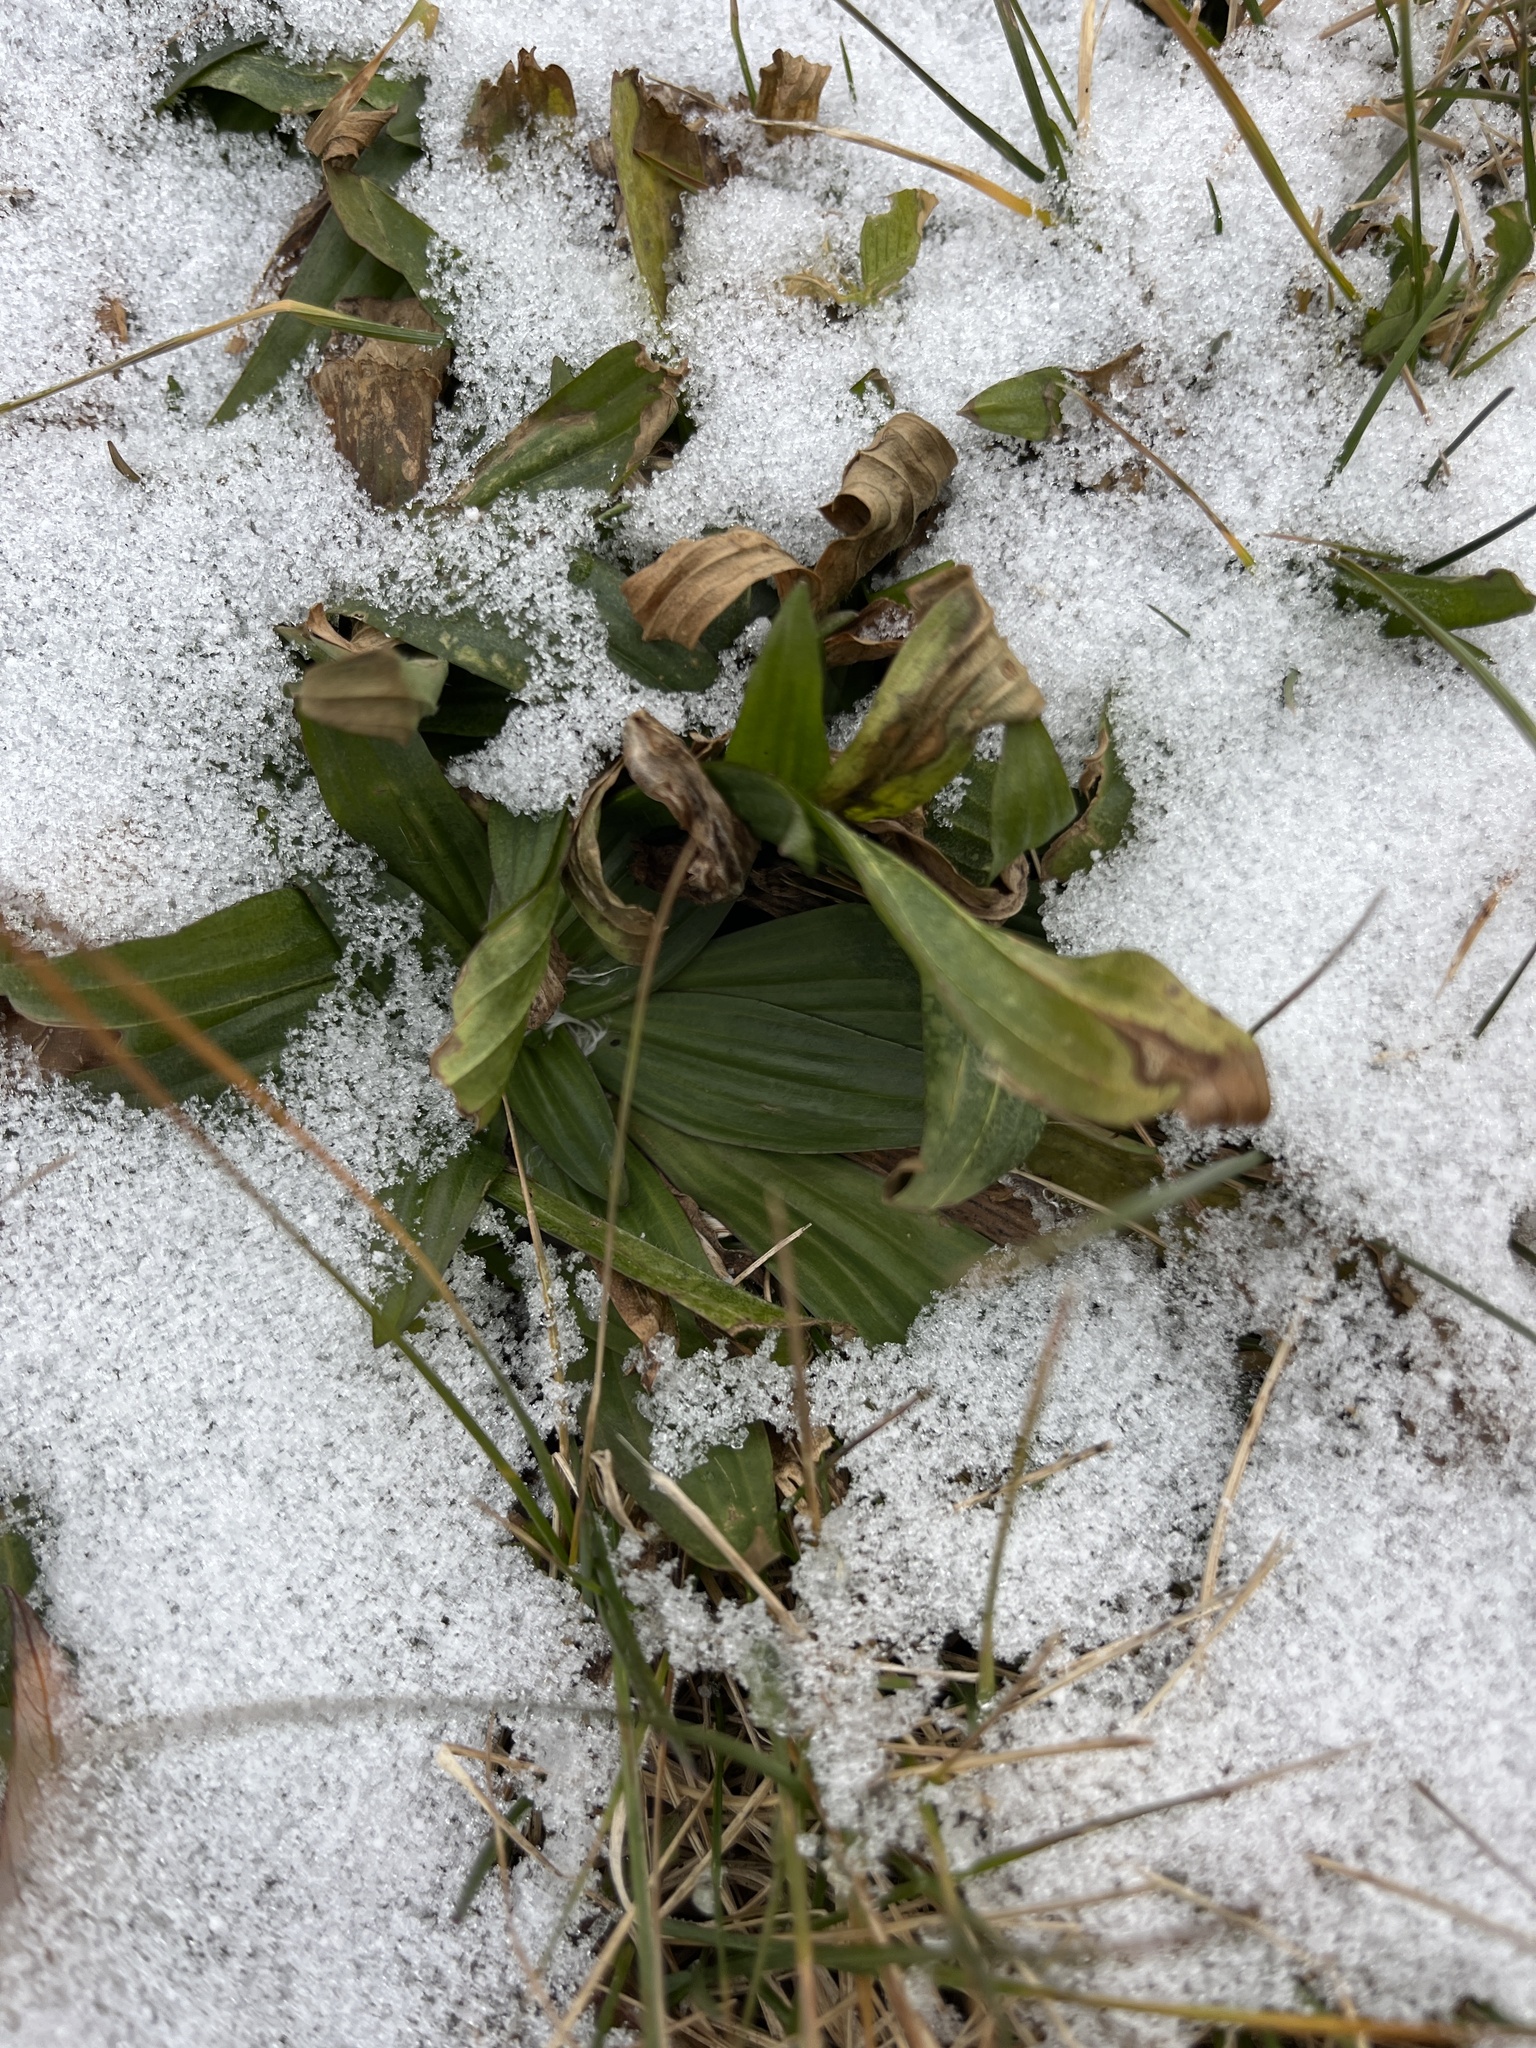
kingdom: Plantae
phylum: Tracheophyta
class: Magnoliopsida
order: Lamiales
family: Plantaginaceae
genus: Plantago
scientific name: Plantago lanceolata
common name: Ribwort plantain
